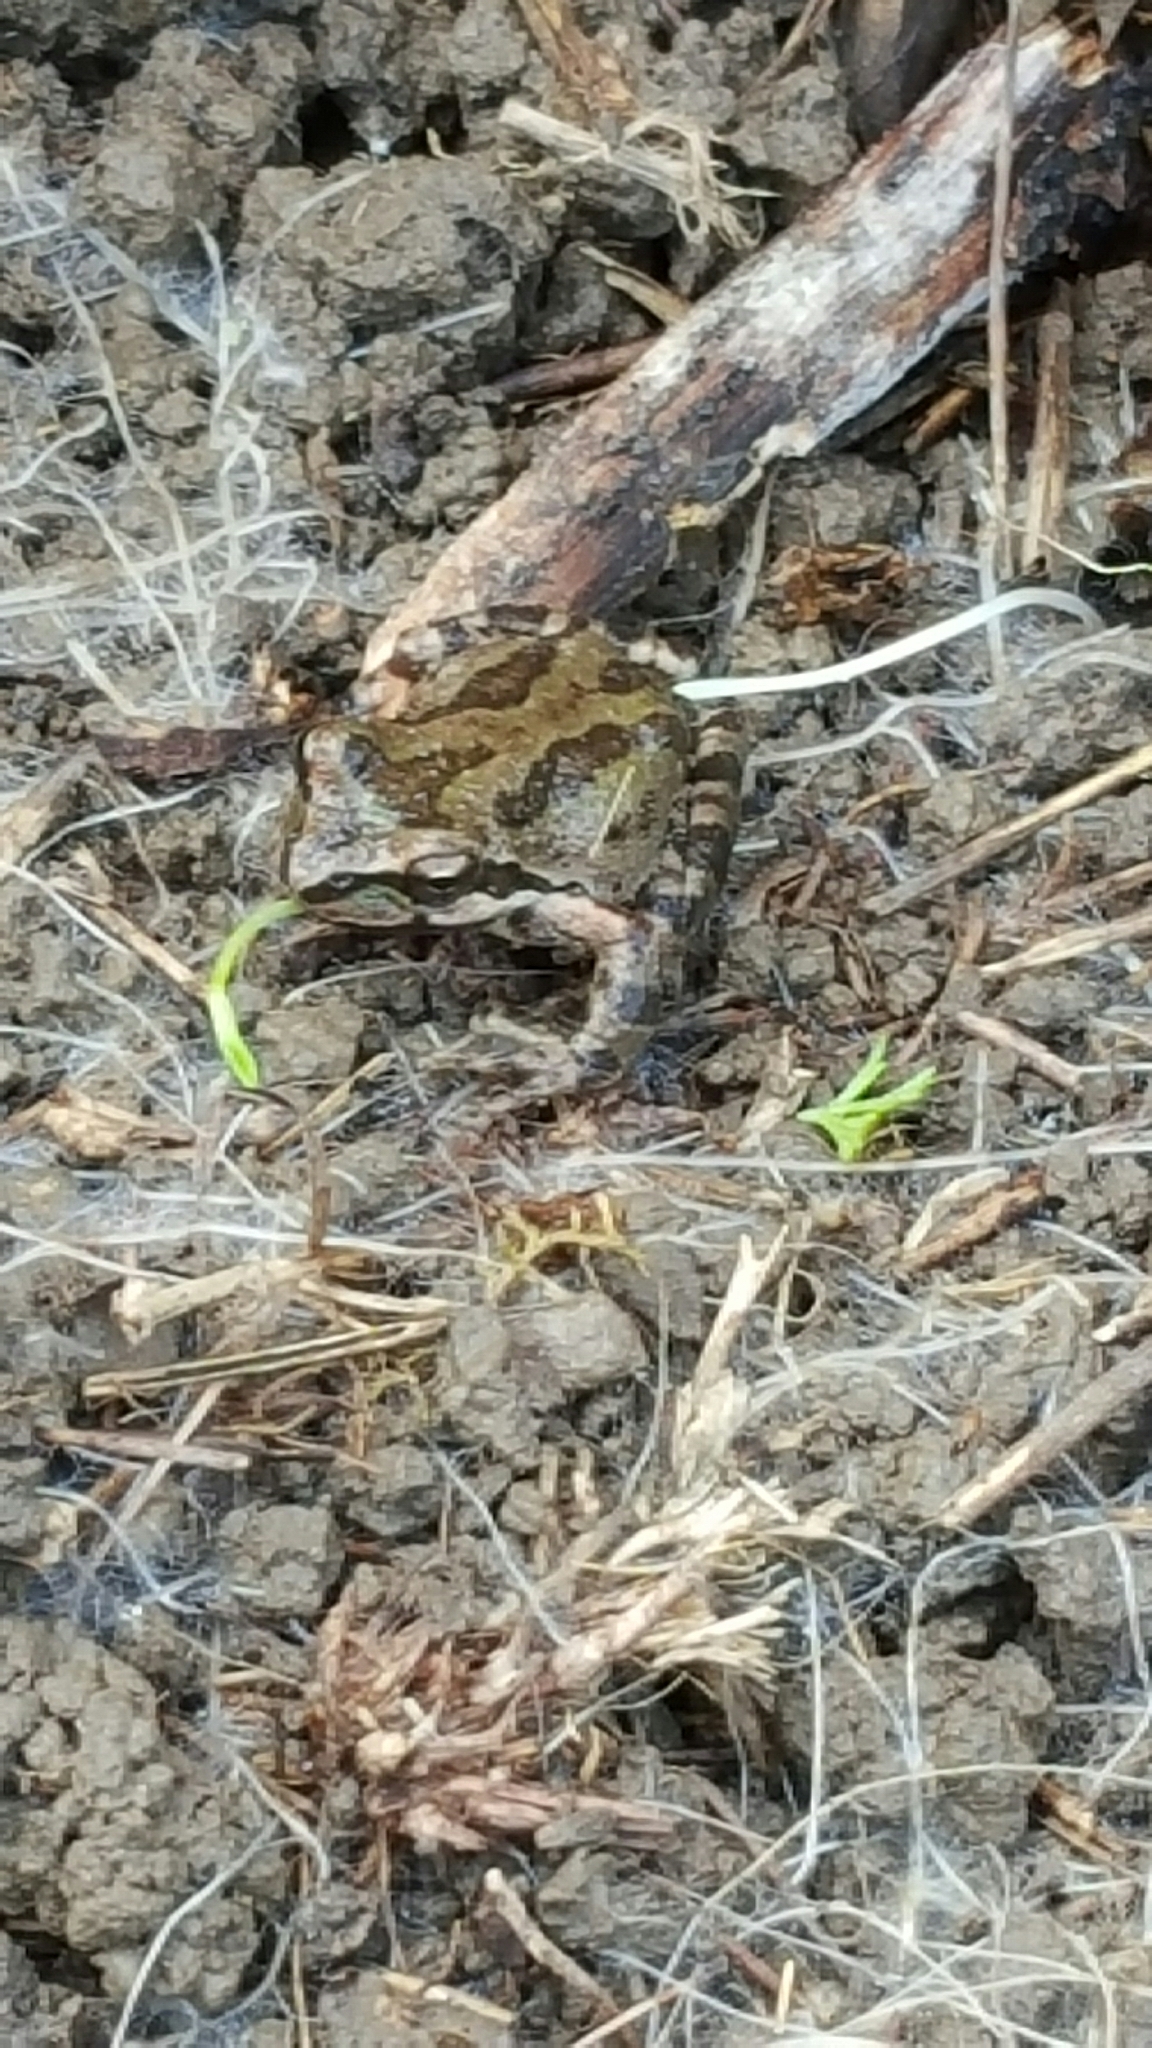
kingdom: Animalia
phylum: Chordata
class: Amphibia
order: Anura
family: Hylidae
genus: Pseudacris
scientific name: Pseudacris regilla
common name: Pacific chorus frog
